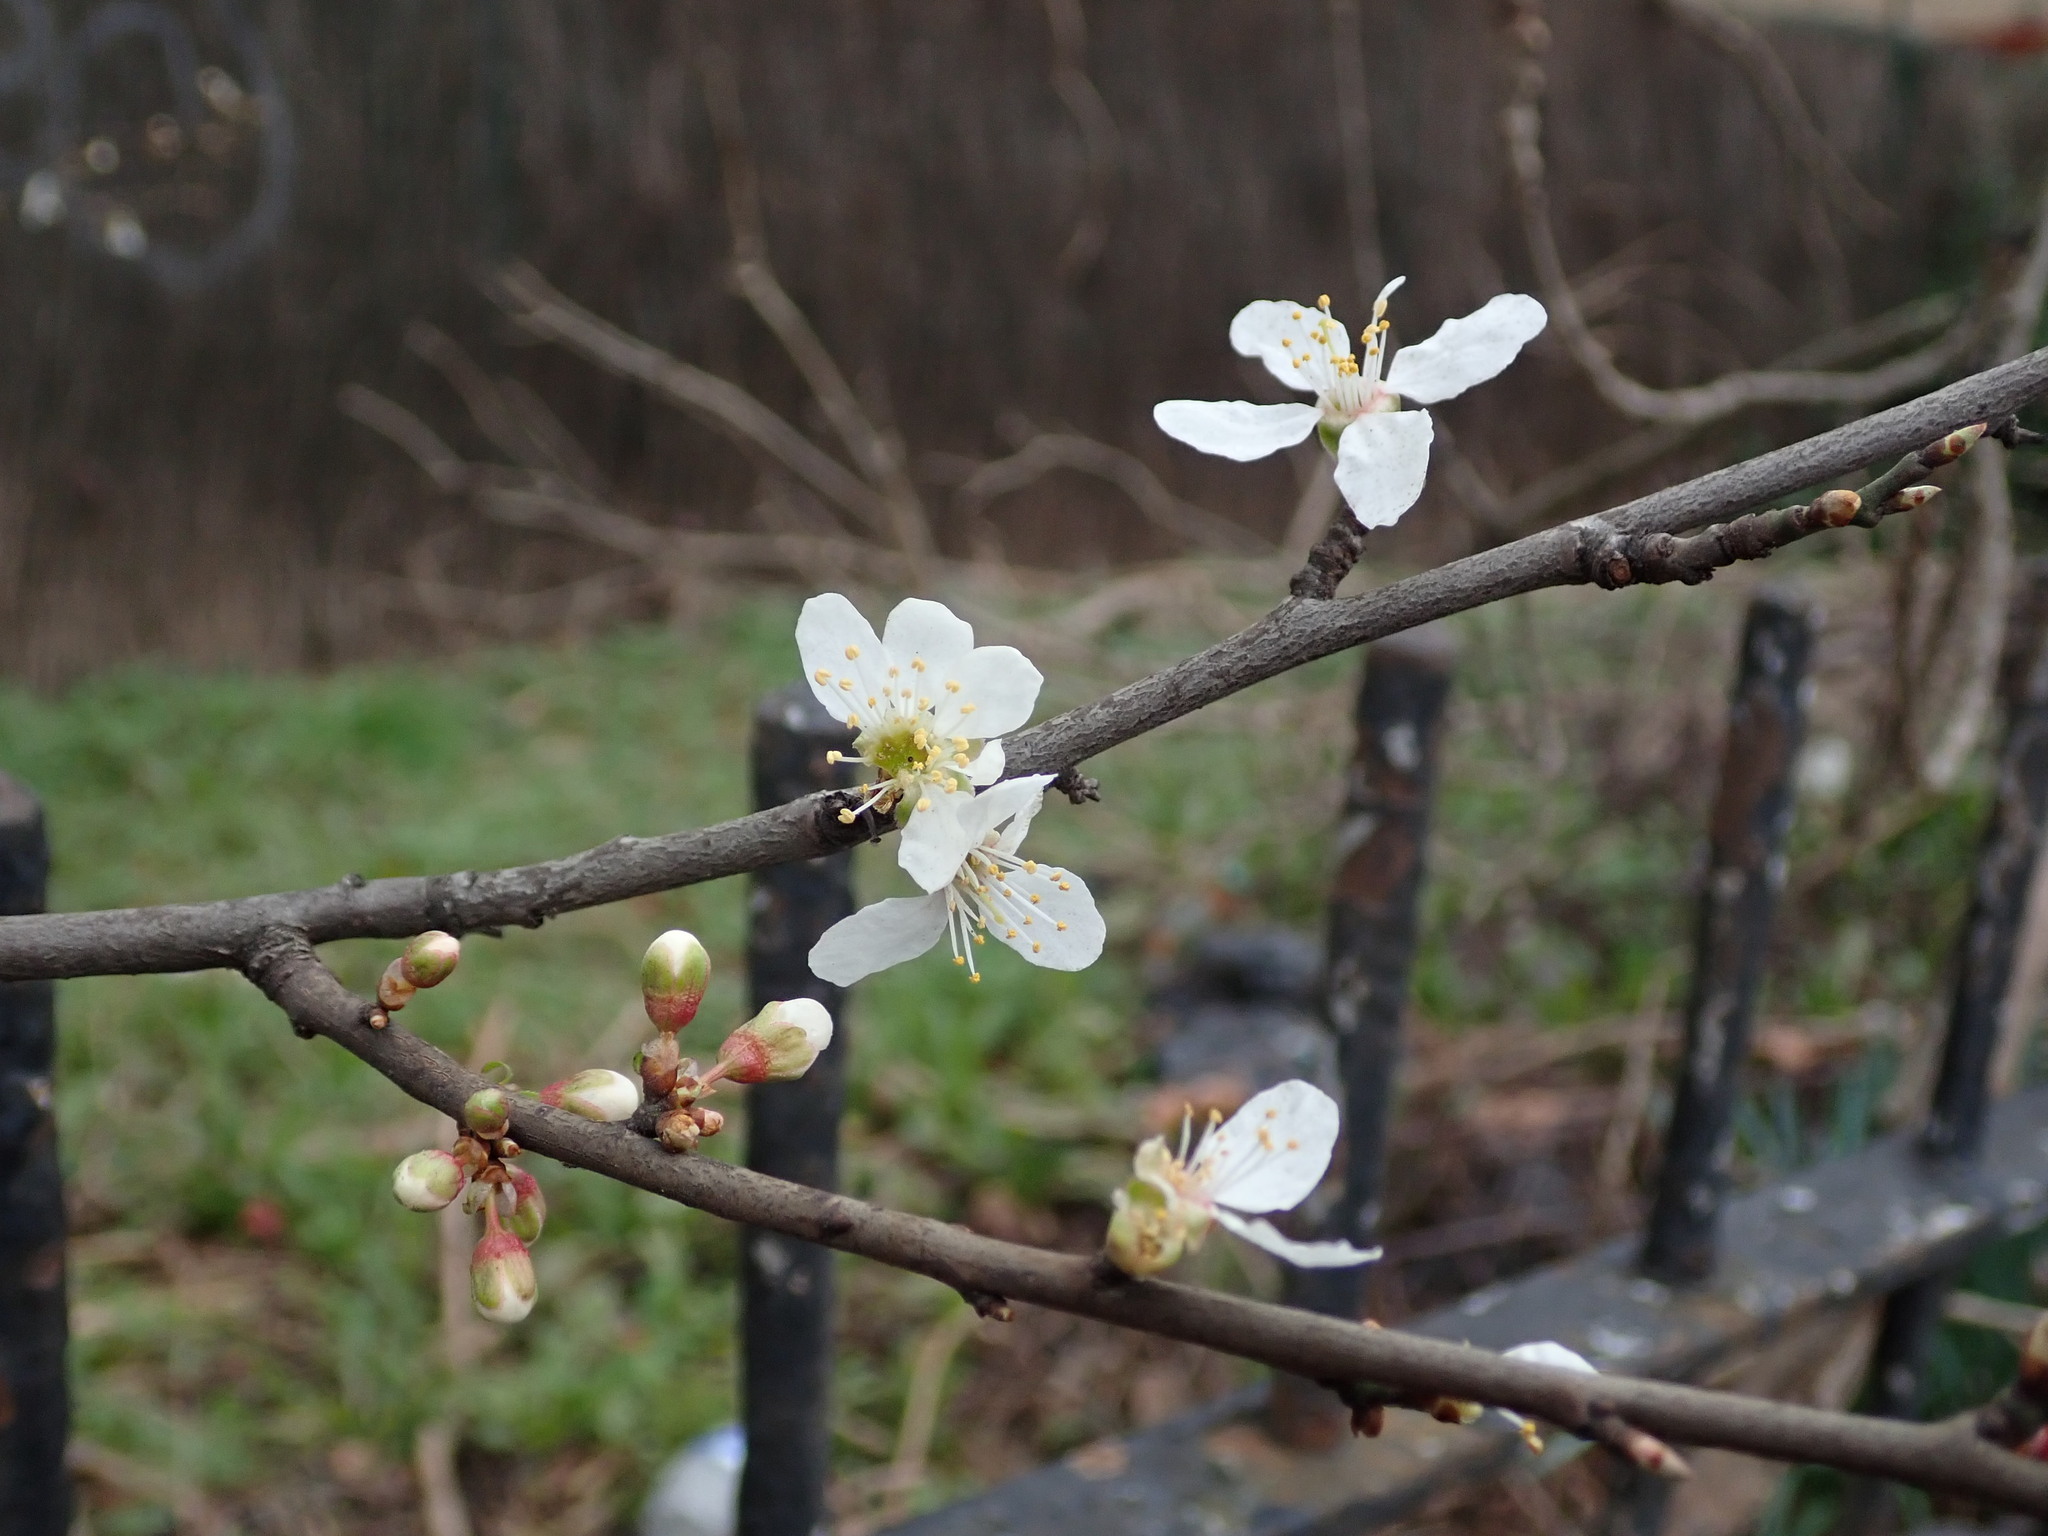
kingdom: Plantae
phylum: Tracheophyta
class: Magnoliopsida
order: Rosales
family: Rosaceae
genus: Prunus
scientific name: Prunus cerasifera
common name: Cherry plum
